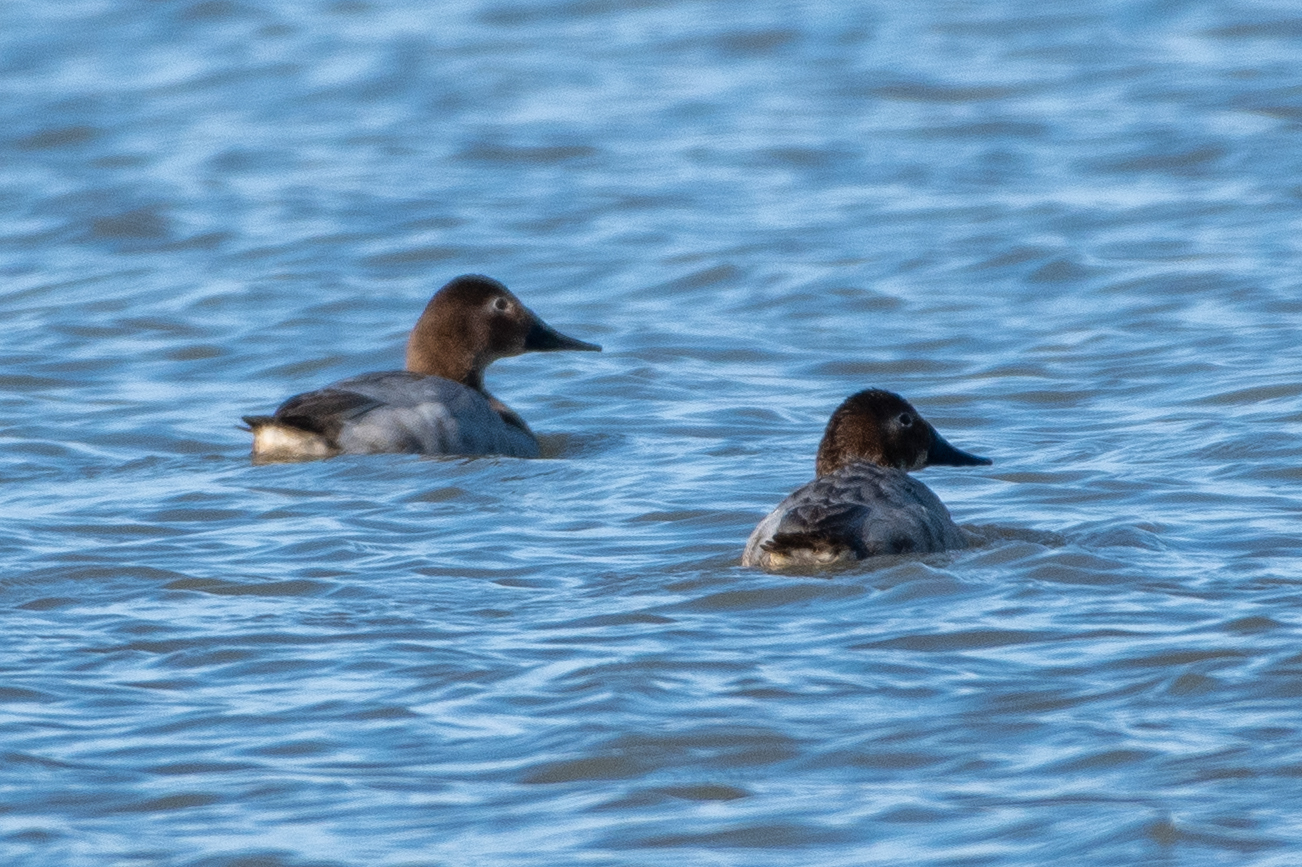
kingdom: Animalia
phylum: Chordata
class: Aves
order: Anseriformes
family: Anatidae
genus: Aythya
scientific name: Aythya valisineria
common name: Canvasback
